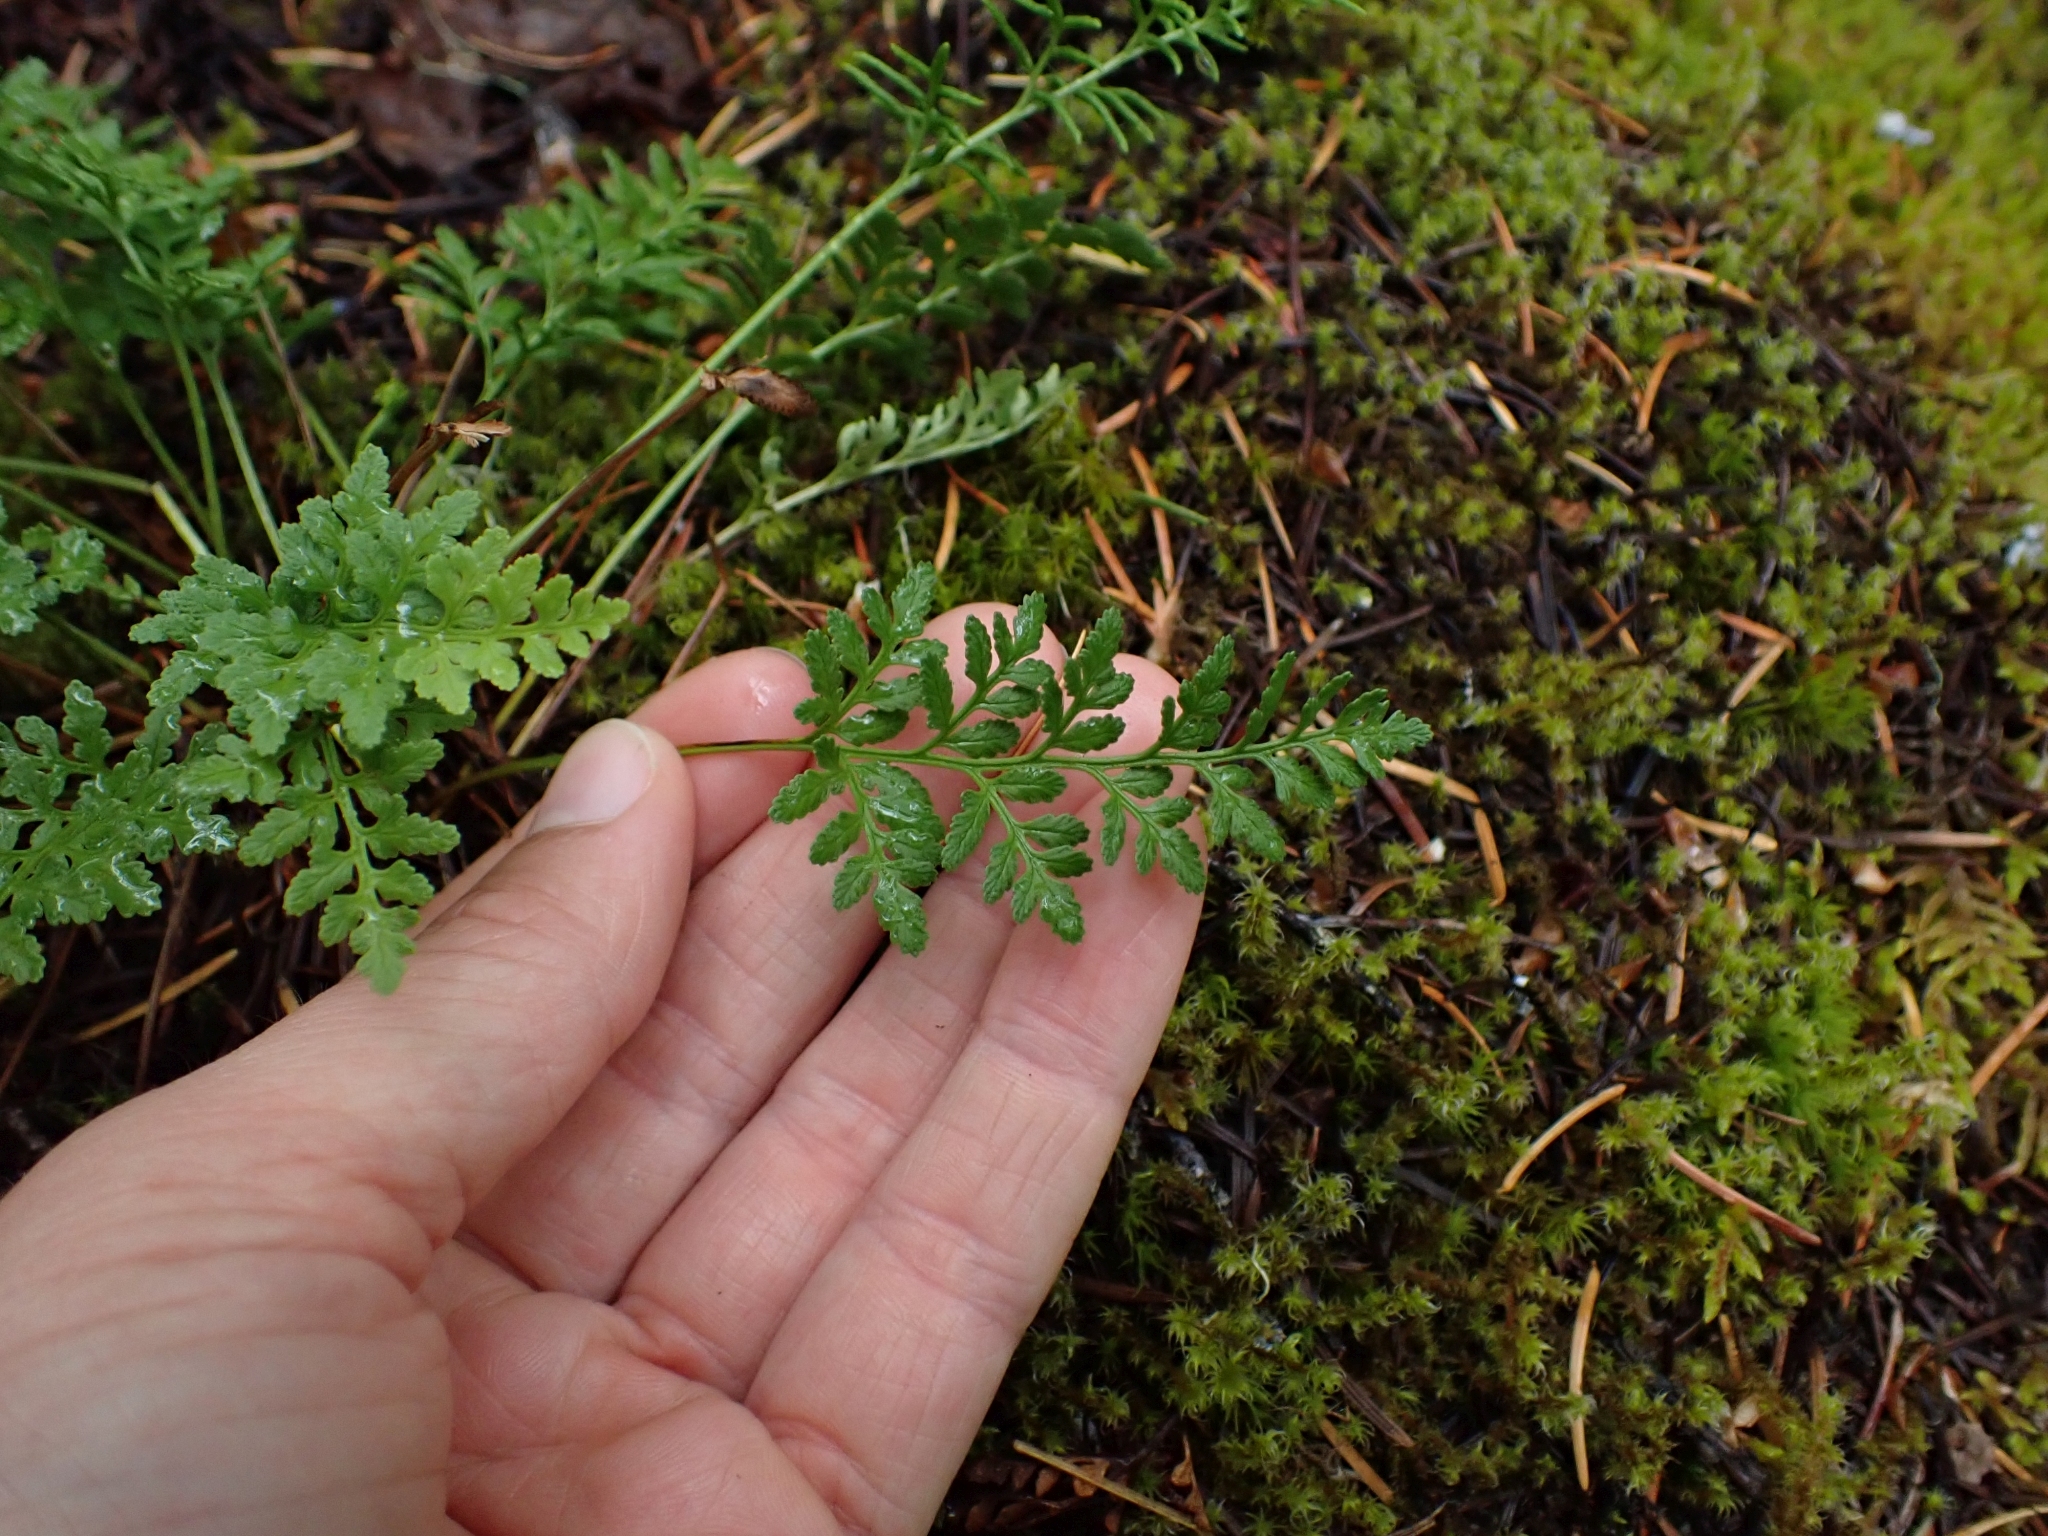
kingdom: Plantae
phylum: Tracheophyta
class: Polypodiopsida
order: Polypodiales
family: Pteridaceae
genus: Cryptogramma
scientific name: Cryptogramma acrostichoides
